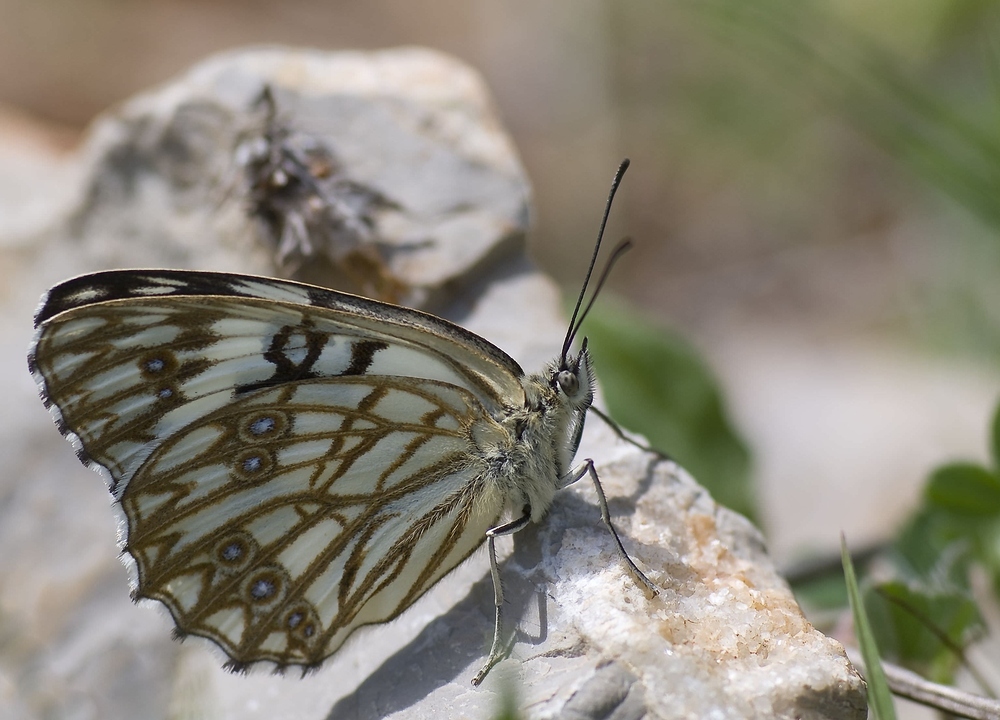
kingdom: Animalia
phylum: Arthropoda
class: Insecta
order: Lepidoptera
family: Nymphalidae
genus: Melanargia
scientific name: Melanargia occitanica
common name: Western marbled white
